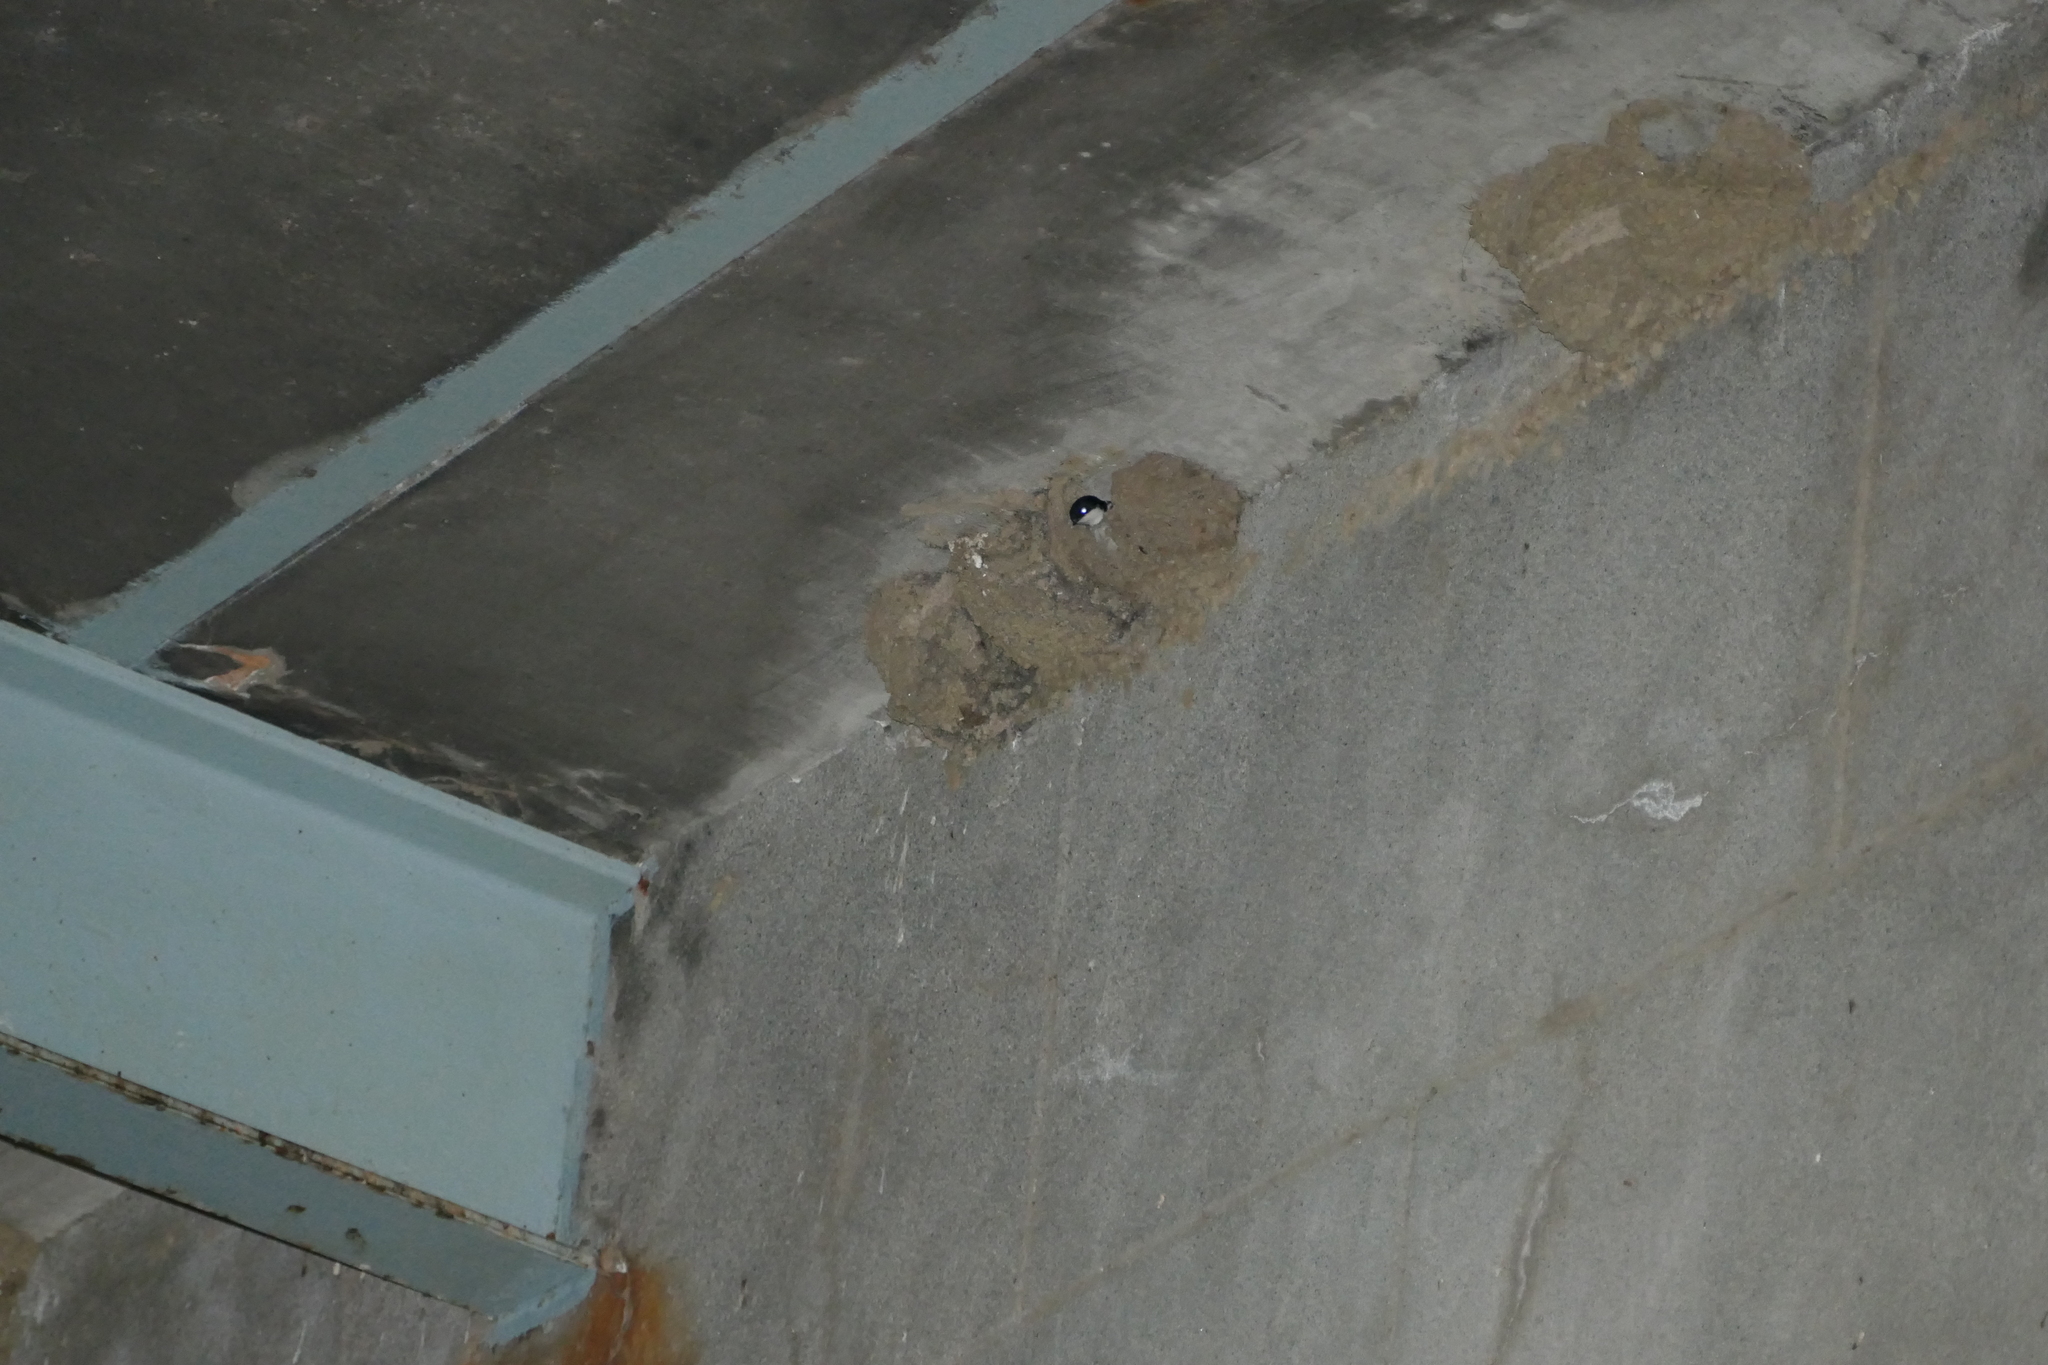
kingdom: Animalia
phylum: Chordata
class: Aves
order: Passeriformes
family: Hirundinidae
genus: Delichon
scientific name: Delichon urbicum
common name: Common house martin
